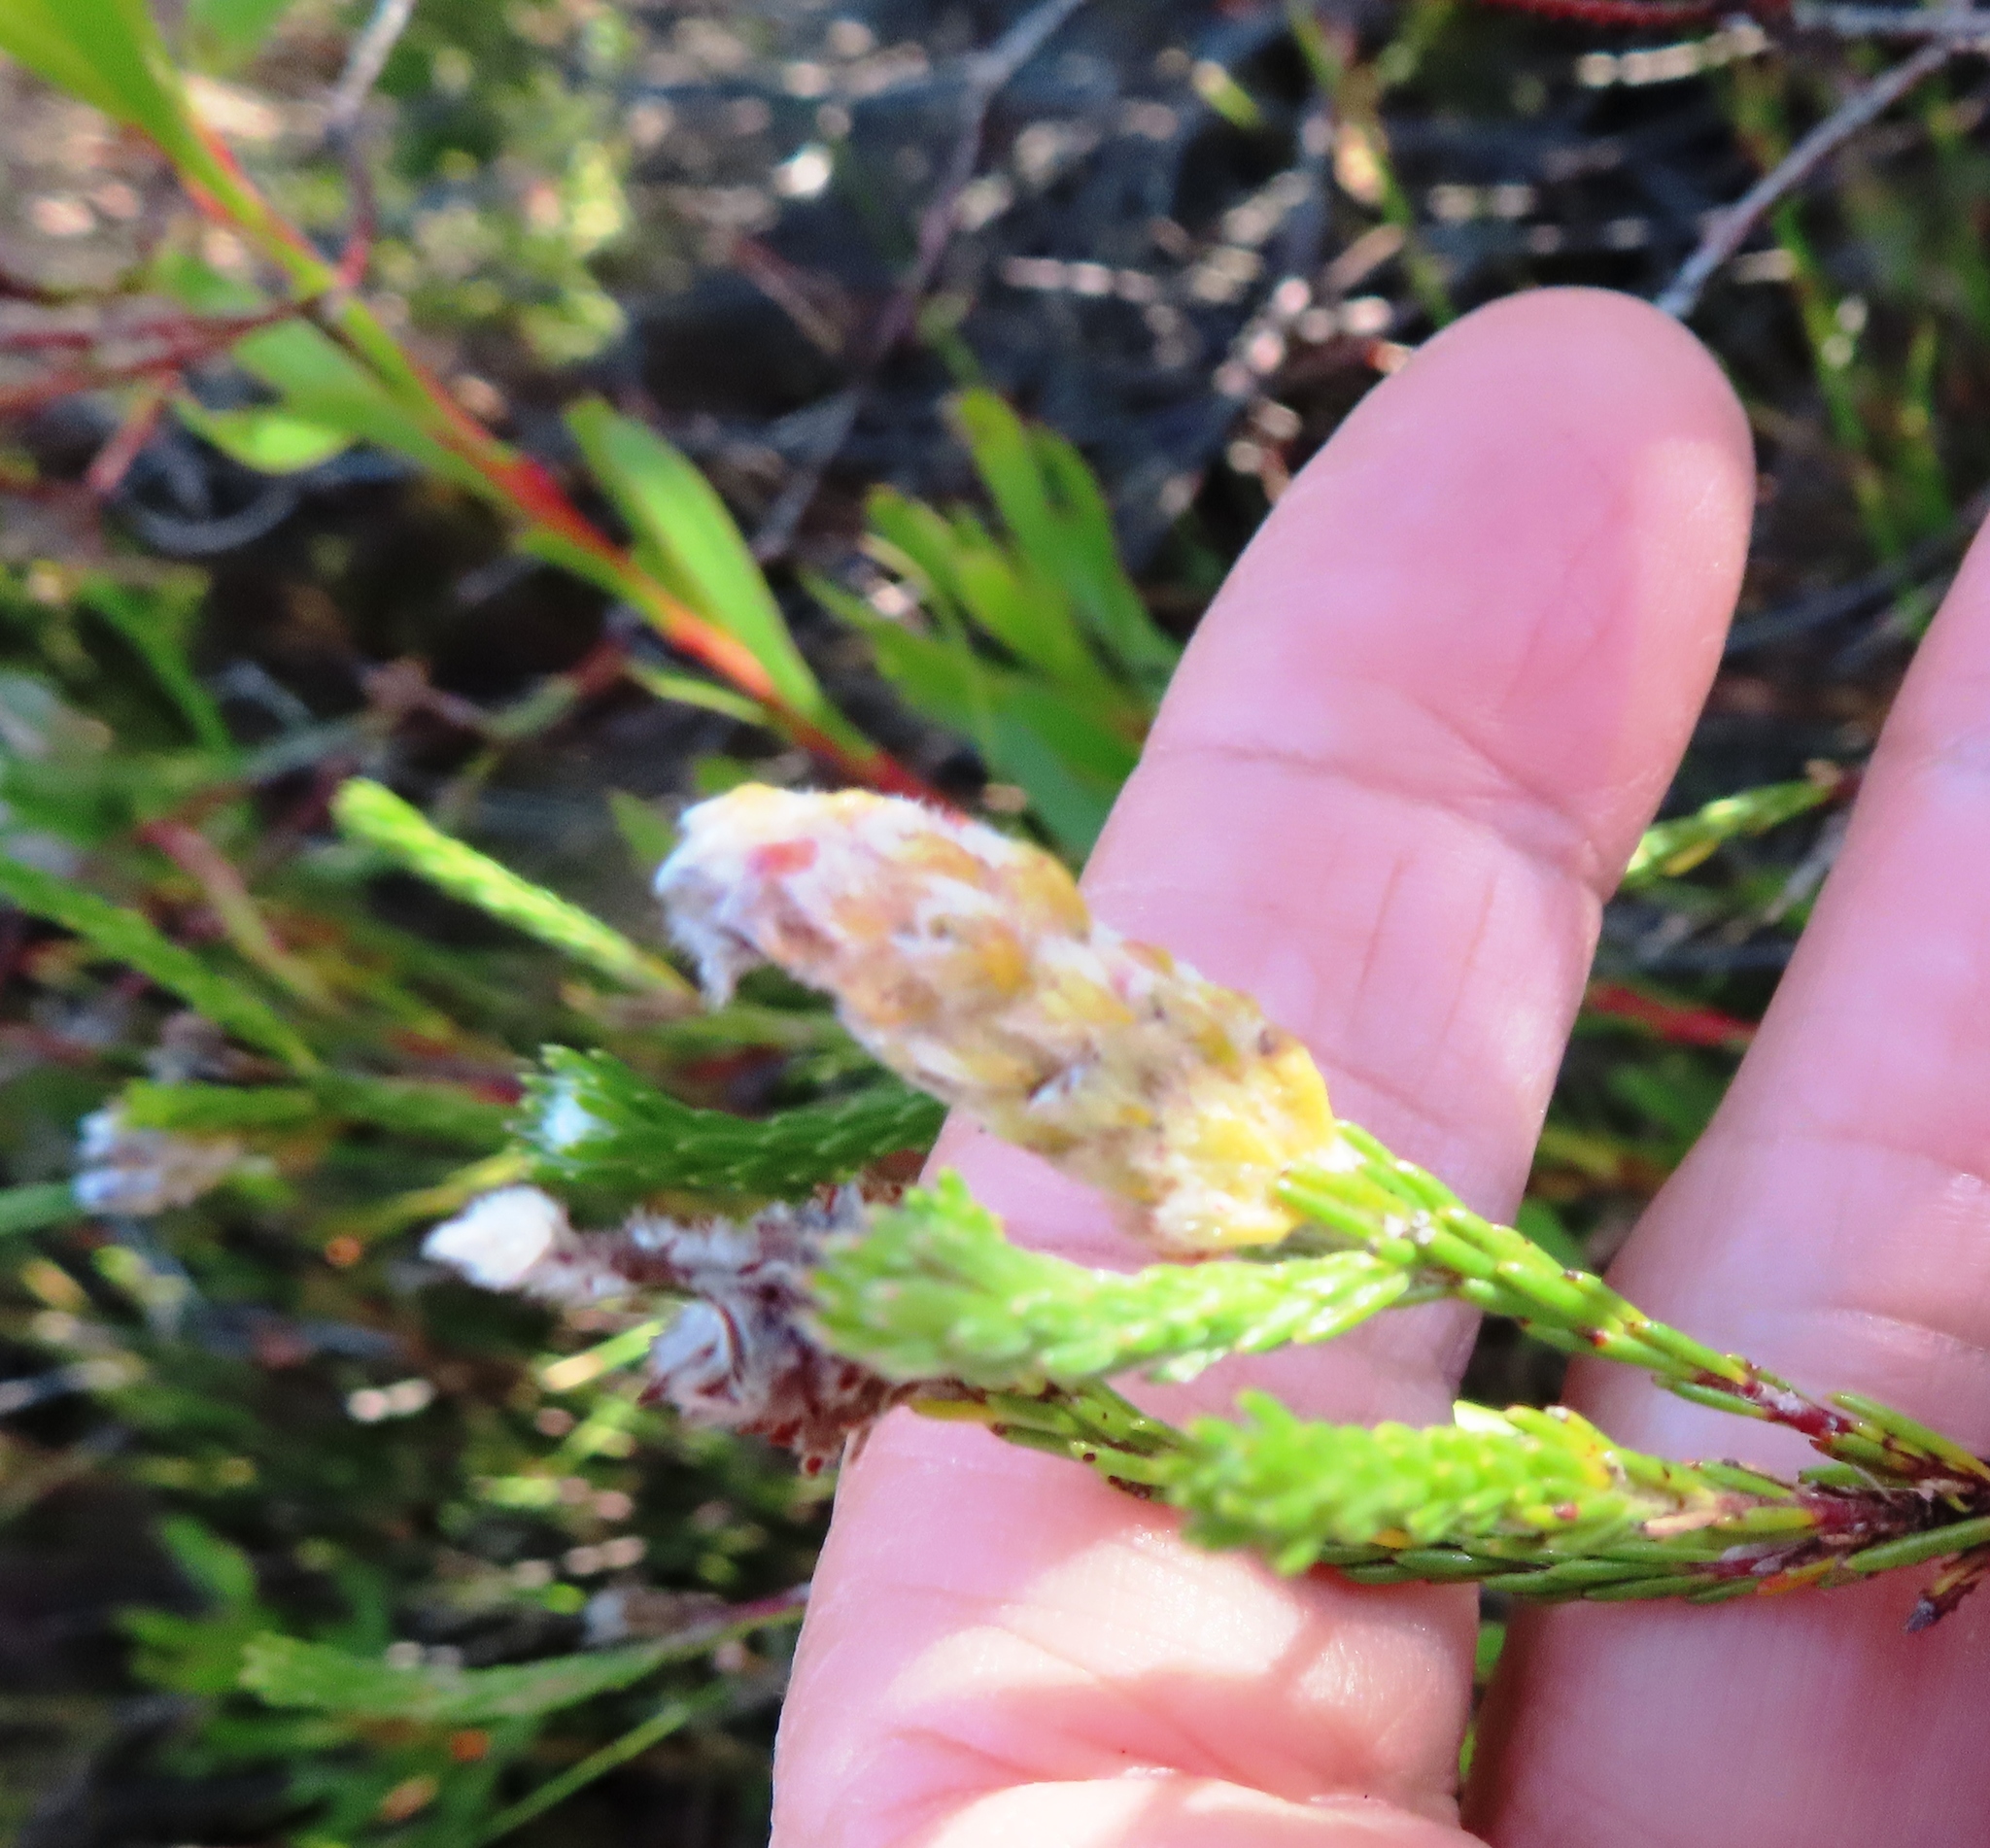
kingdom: Plantae
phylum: Tracheophyta
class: Magnoliopsida
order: Proteales
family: Proteaceae
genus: Spatalla
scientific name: Spatalla ericoides
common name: Erica-leaf spoon
